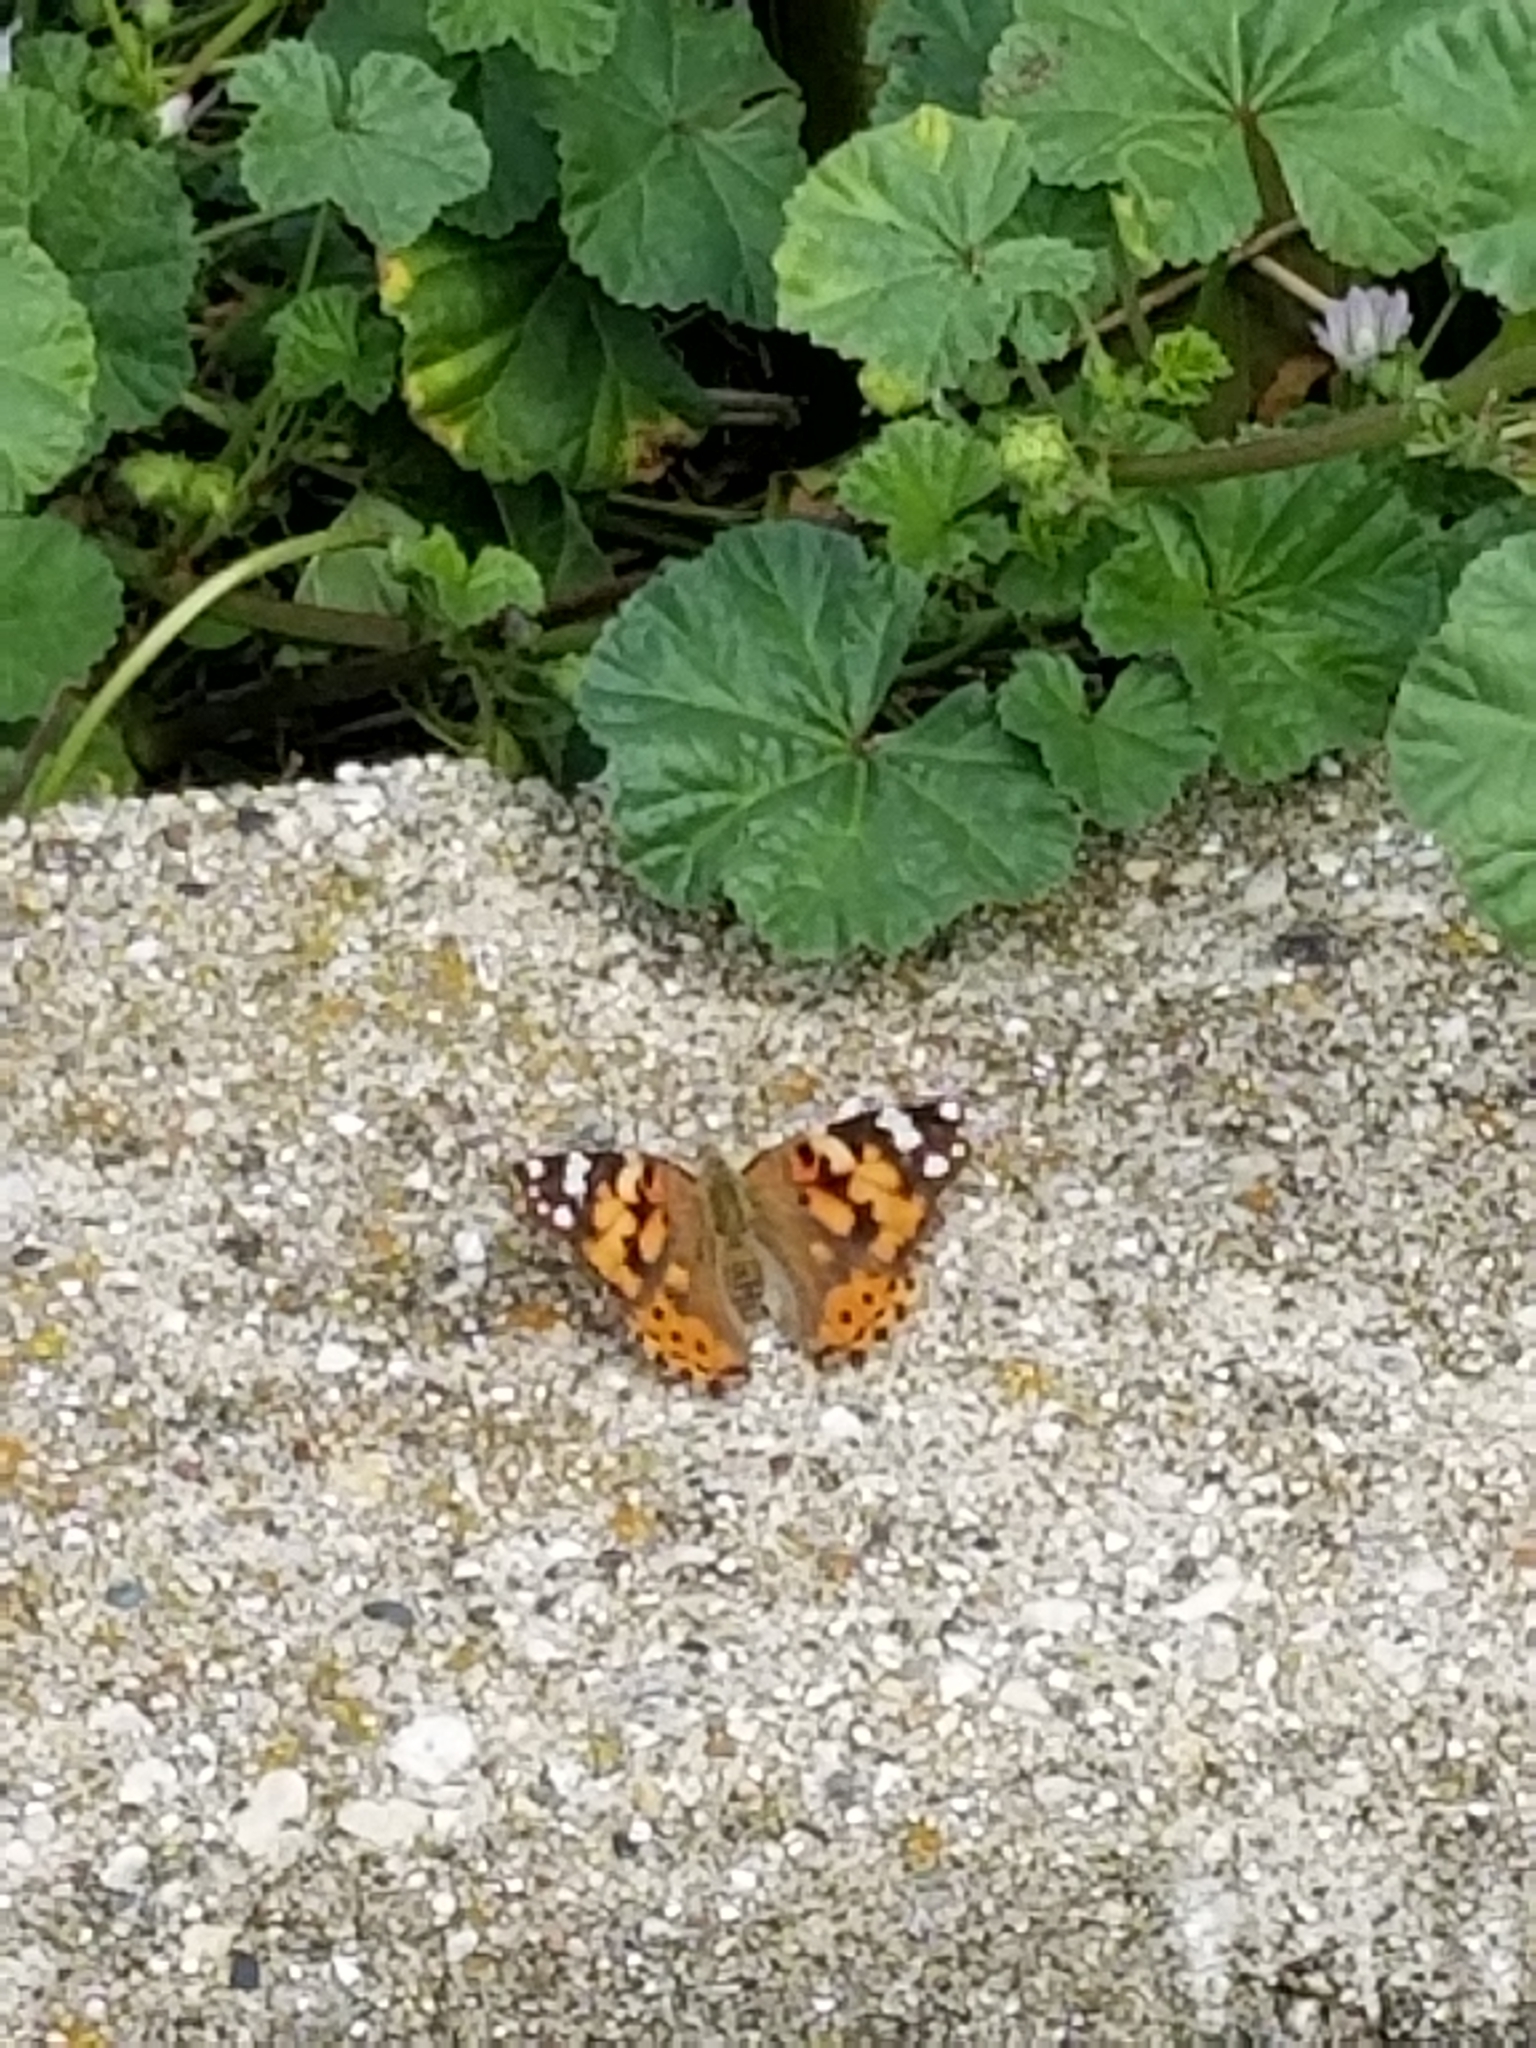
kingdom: Animalia
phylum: Arthropoda
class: Insecta
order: Lepidoptera
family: Nymphalidae
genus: Vanessa
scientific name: Vanessa cardui
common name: Painted lady
